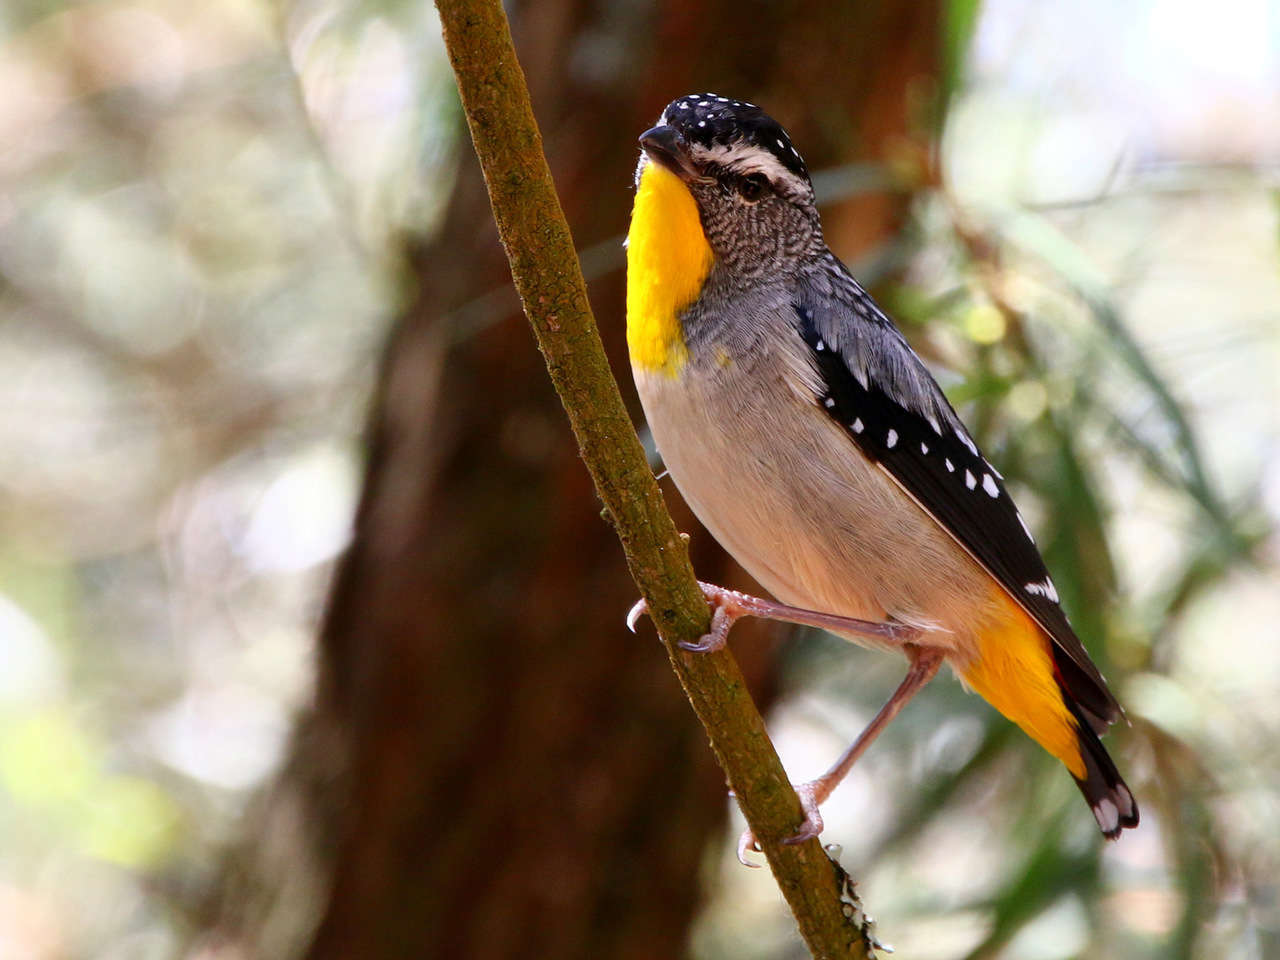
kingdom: Animalia
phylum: Chordata
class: Aves
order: Passeriformes
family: Pardalotidae
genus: Pardalotus
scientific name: Pardalotus punctatus
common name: Spotted pardalote
